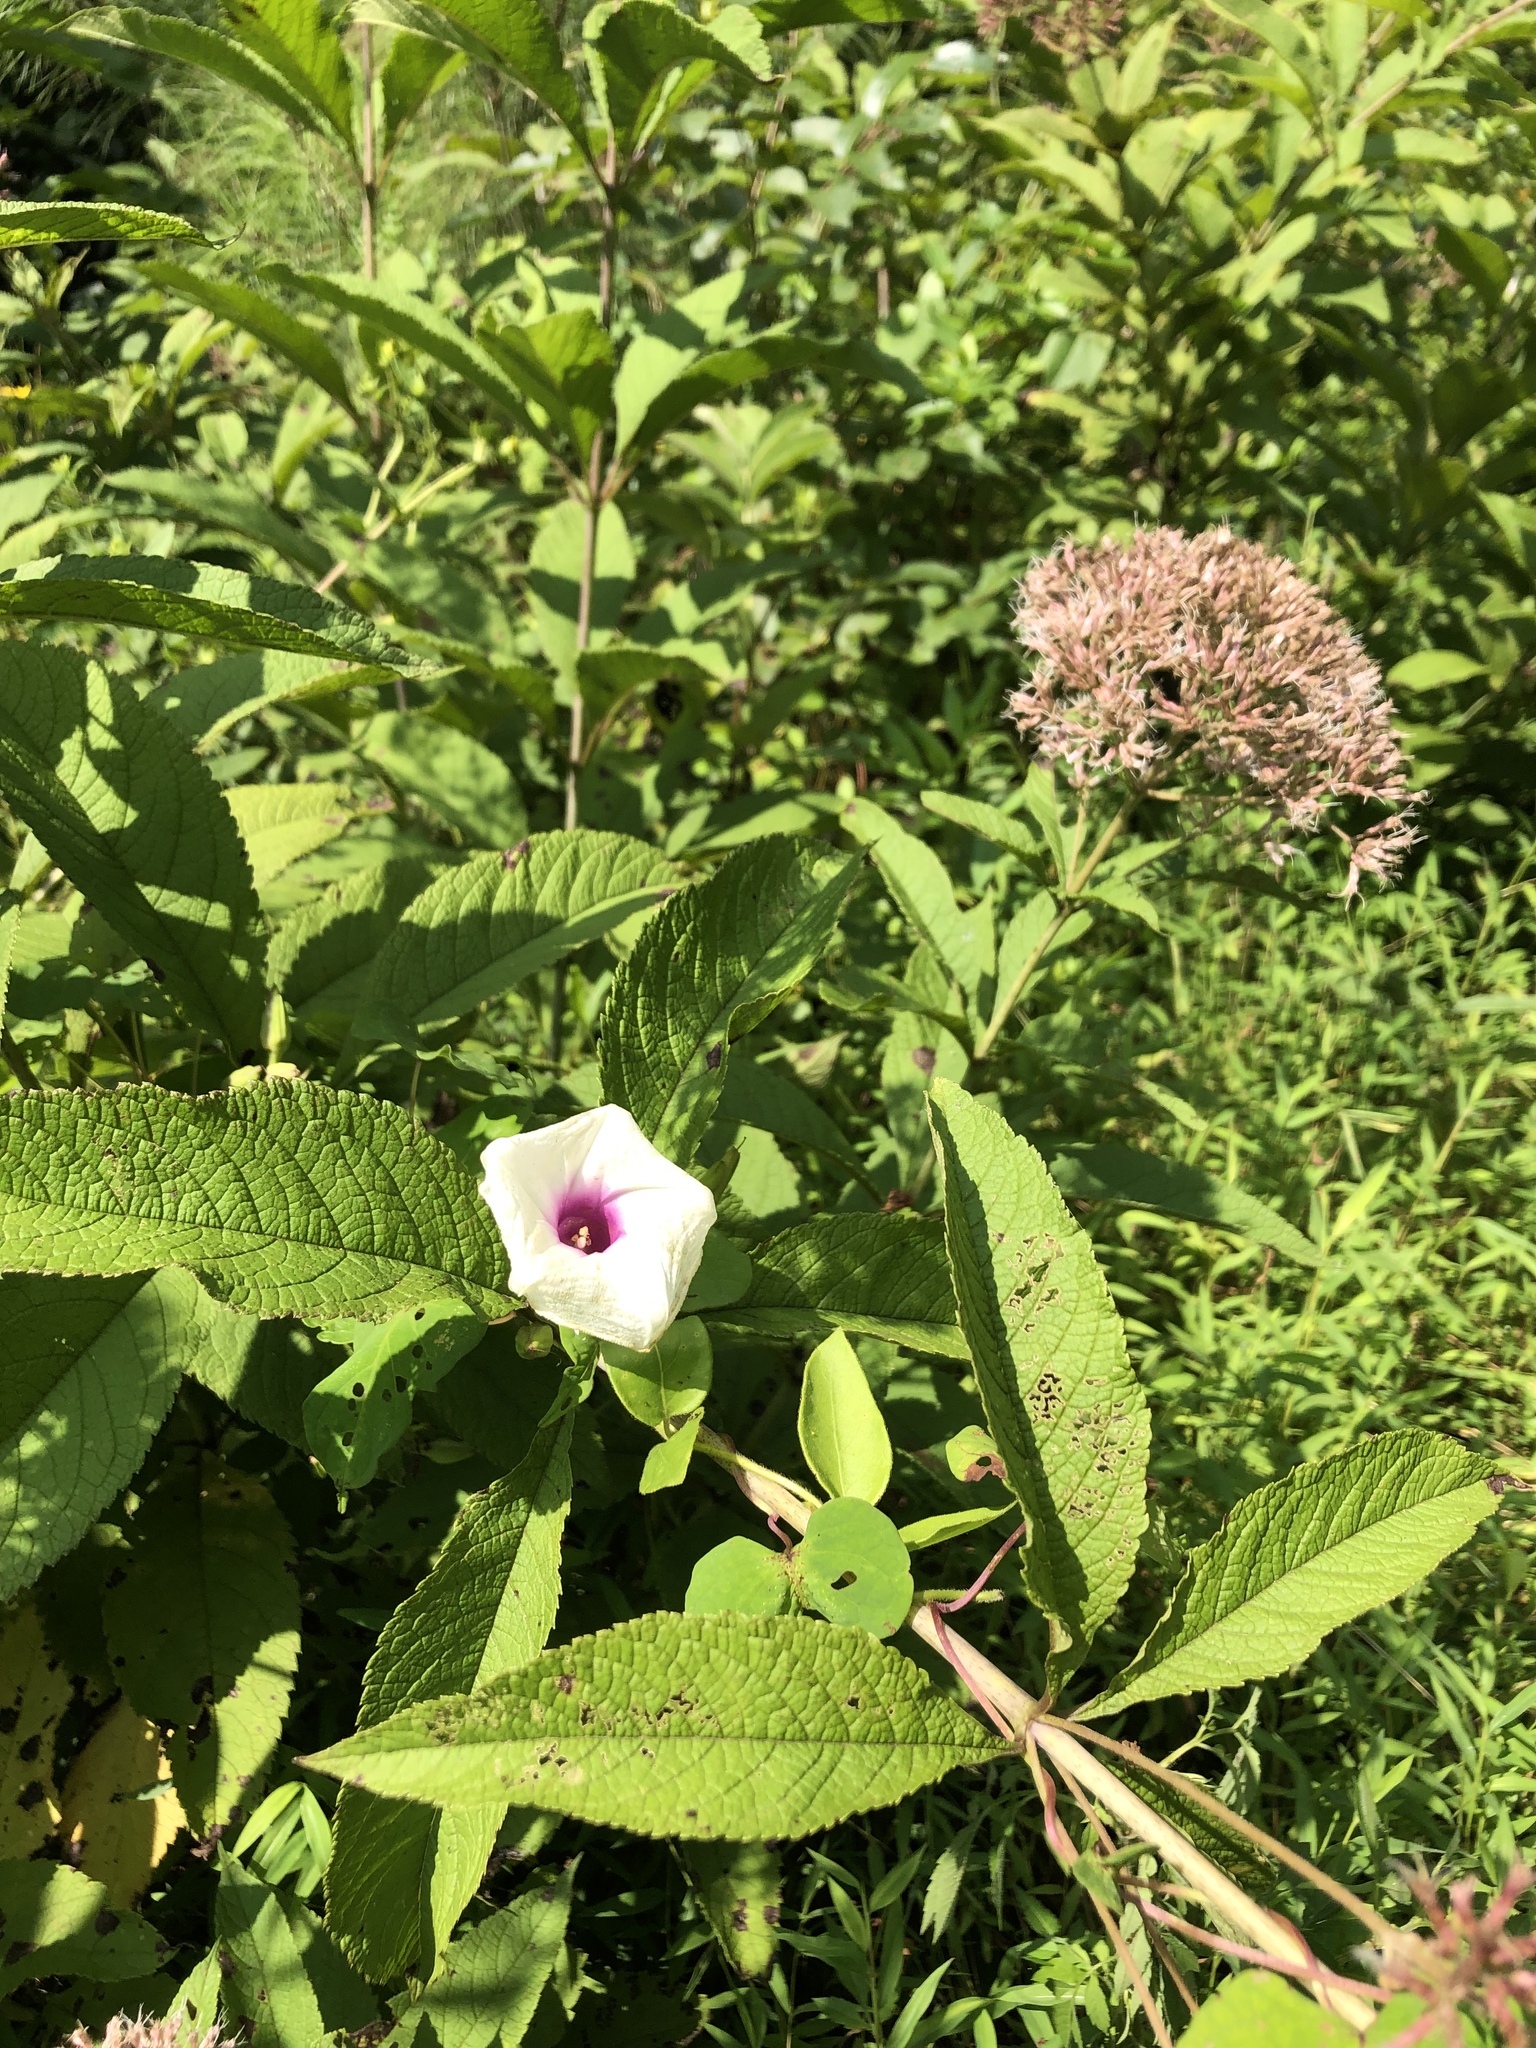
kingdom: Plantae
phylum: Tracheophyta
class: Magnoliopsida
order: Solanales
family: Convolvulaceae
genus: Ipomoea
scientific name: Ipomoea pandurata
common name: Man-of-the-earth
